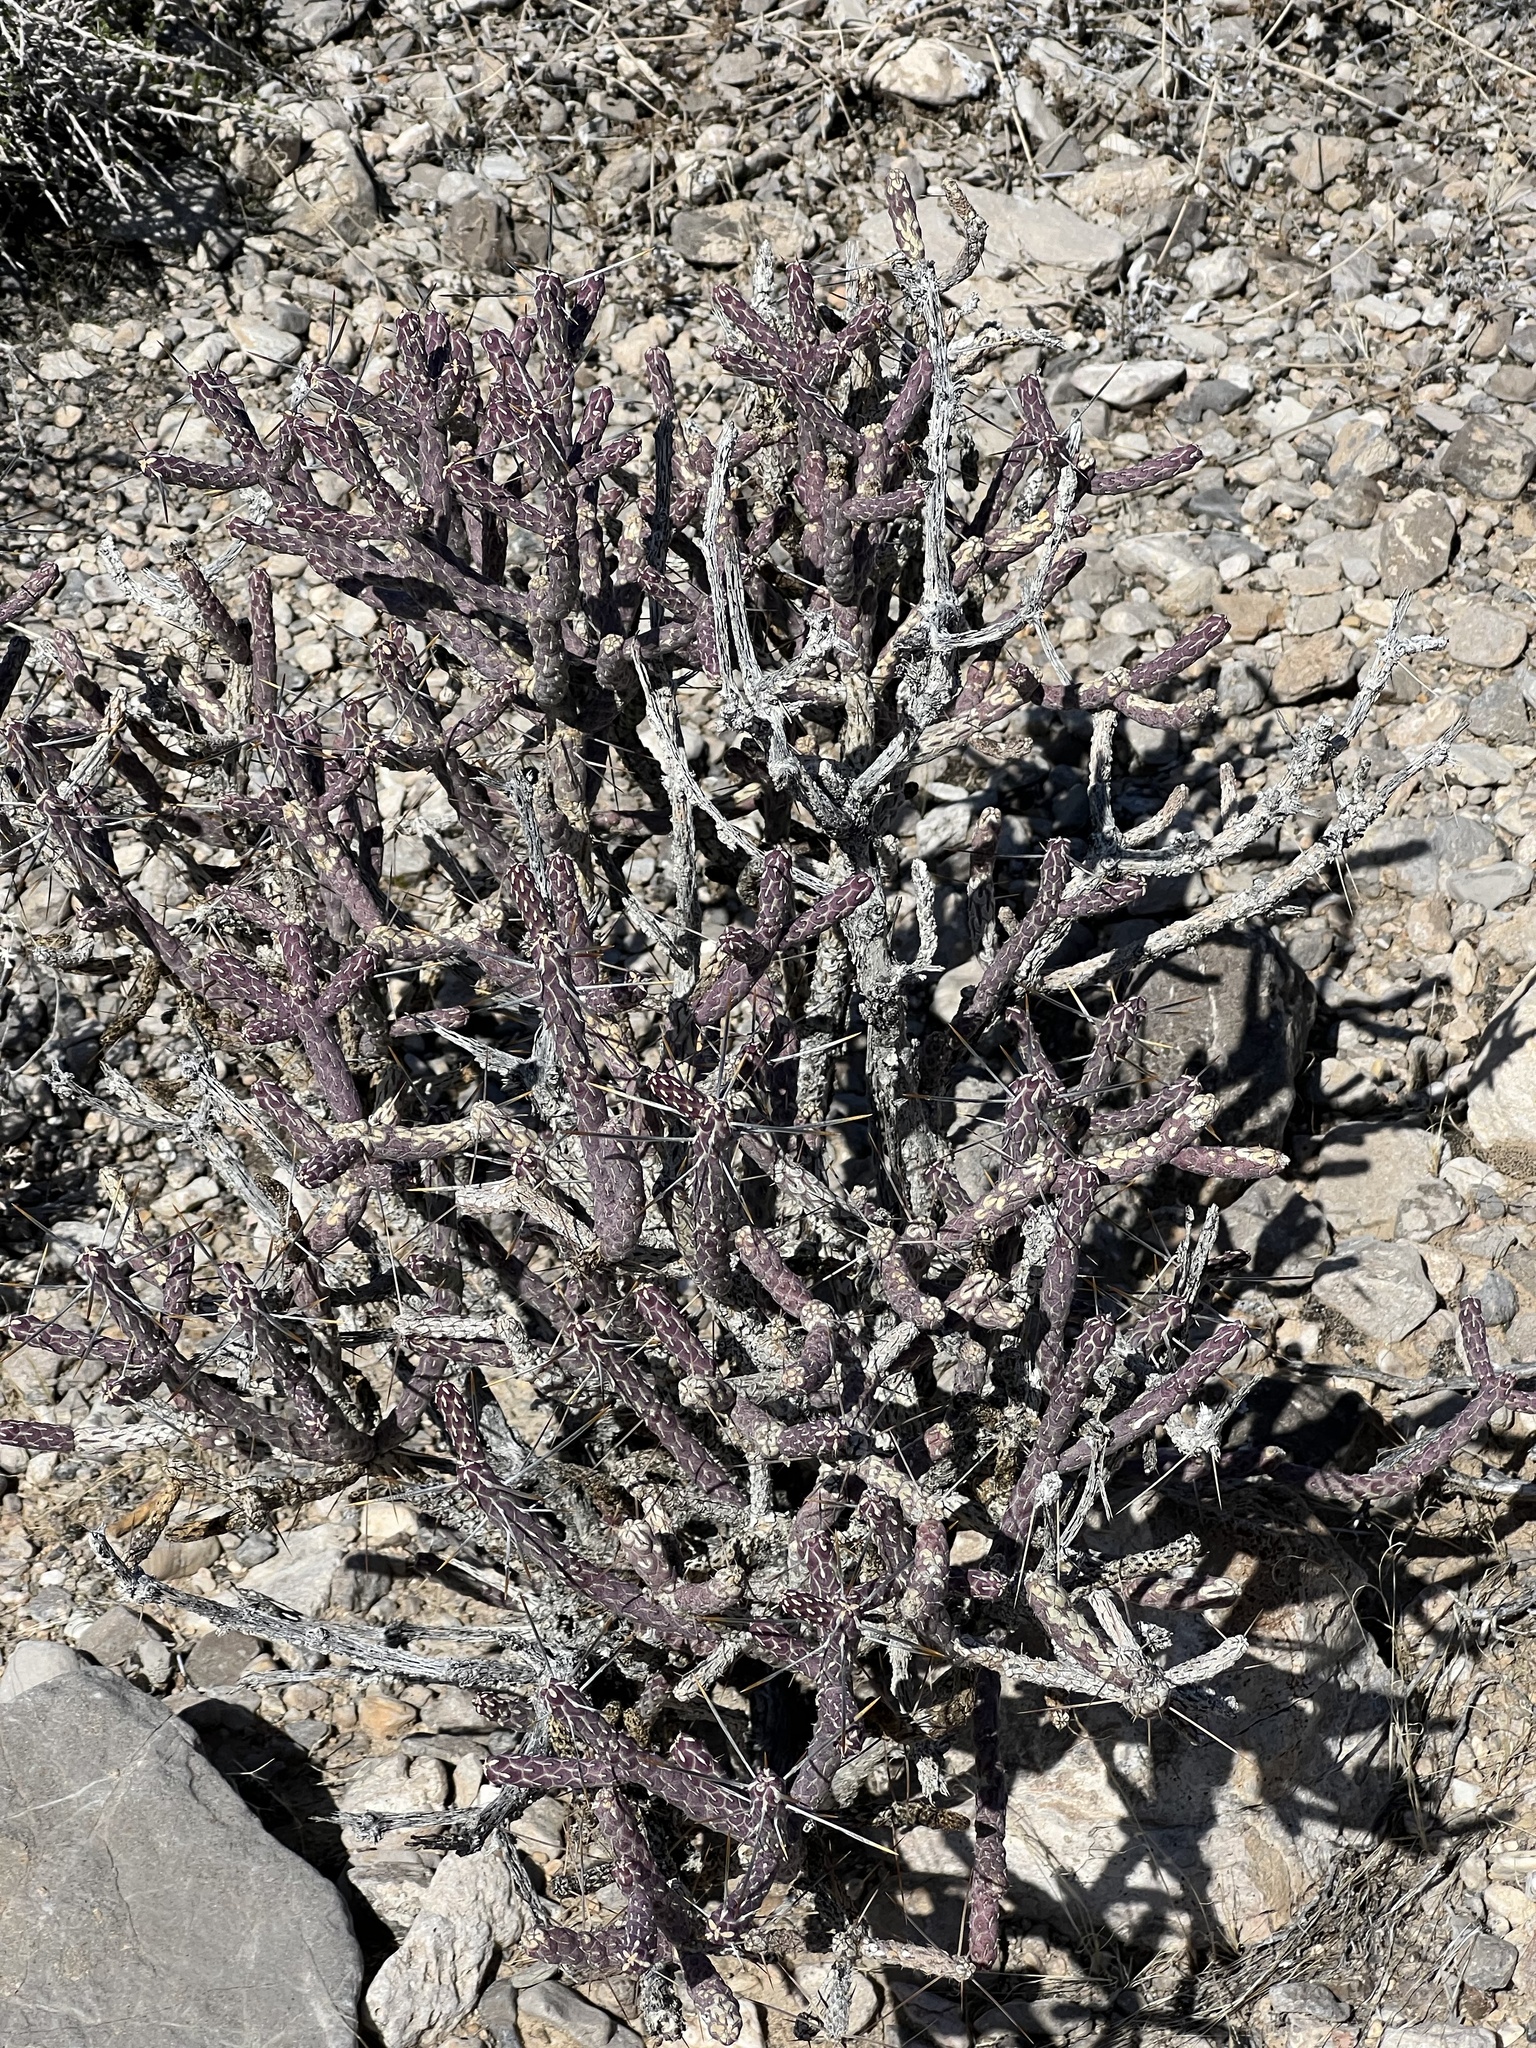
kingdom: Plantae
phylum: Tracheophyta
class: Magnoliopsida
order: Caryophyllales
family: Cactaceae
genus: Cylindropuntia
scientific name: Cylindropuntia ramosissima
